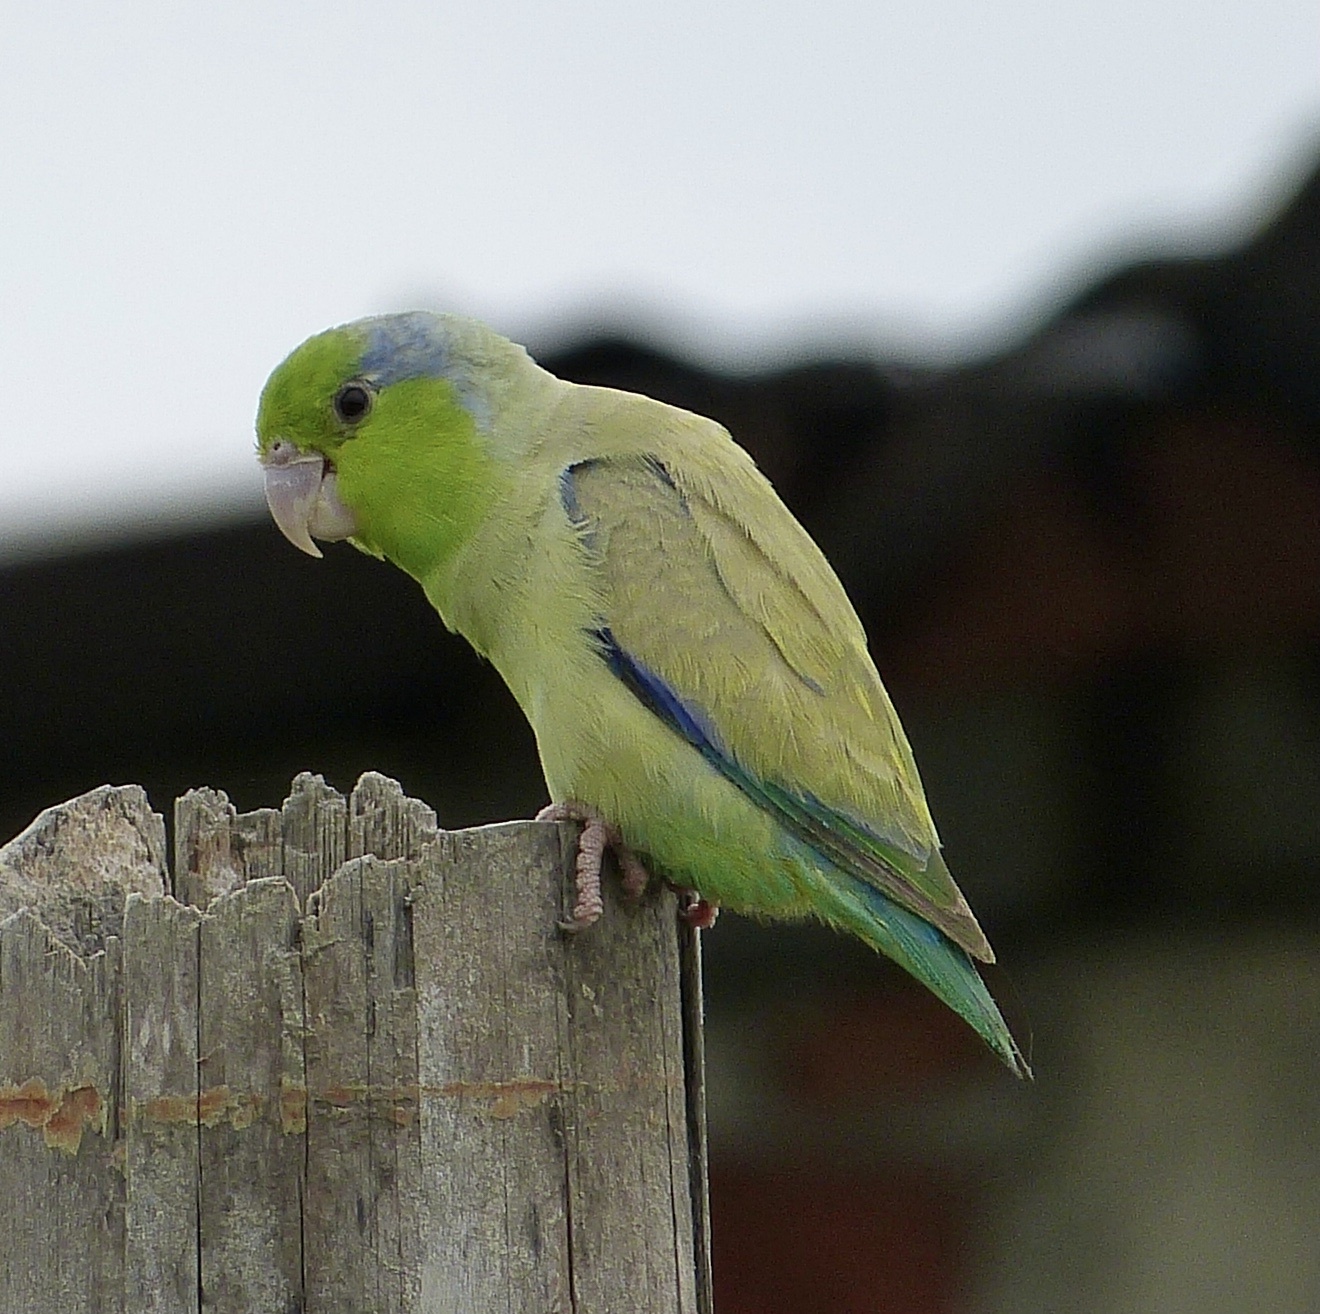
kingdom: Animalia
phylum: Chordata
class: Aves
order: Psittaciformes
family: Psittacidae
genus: Forpus
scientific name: Forpus coelestis
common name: Pacific parrotlet
